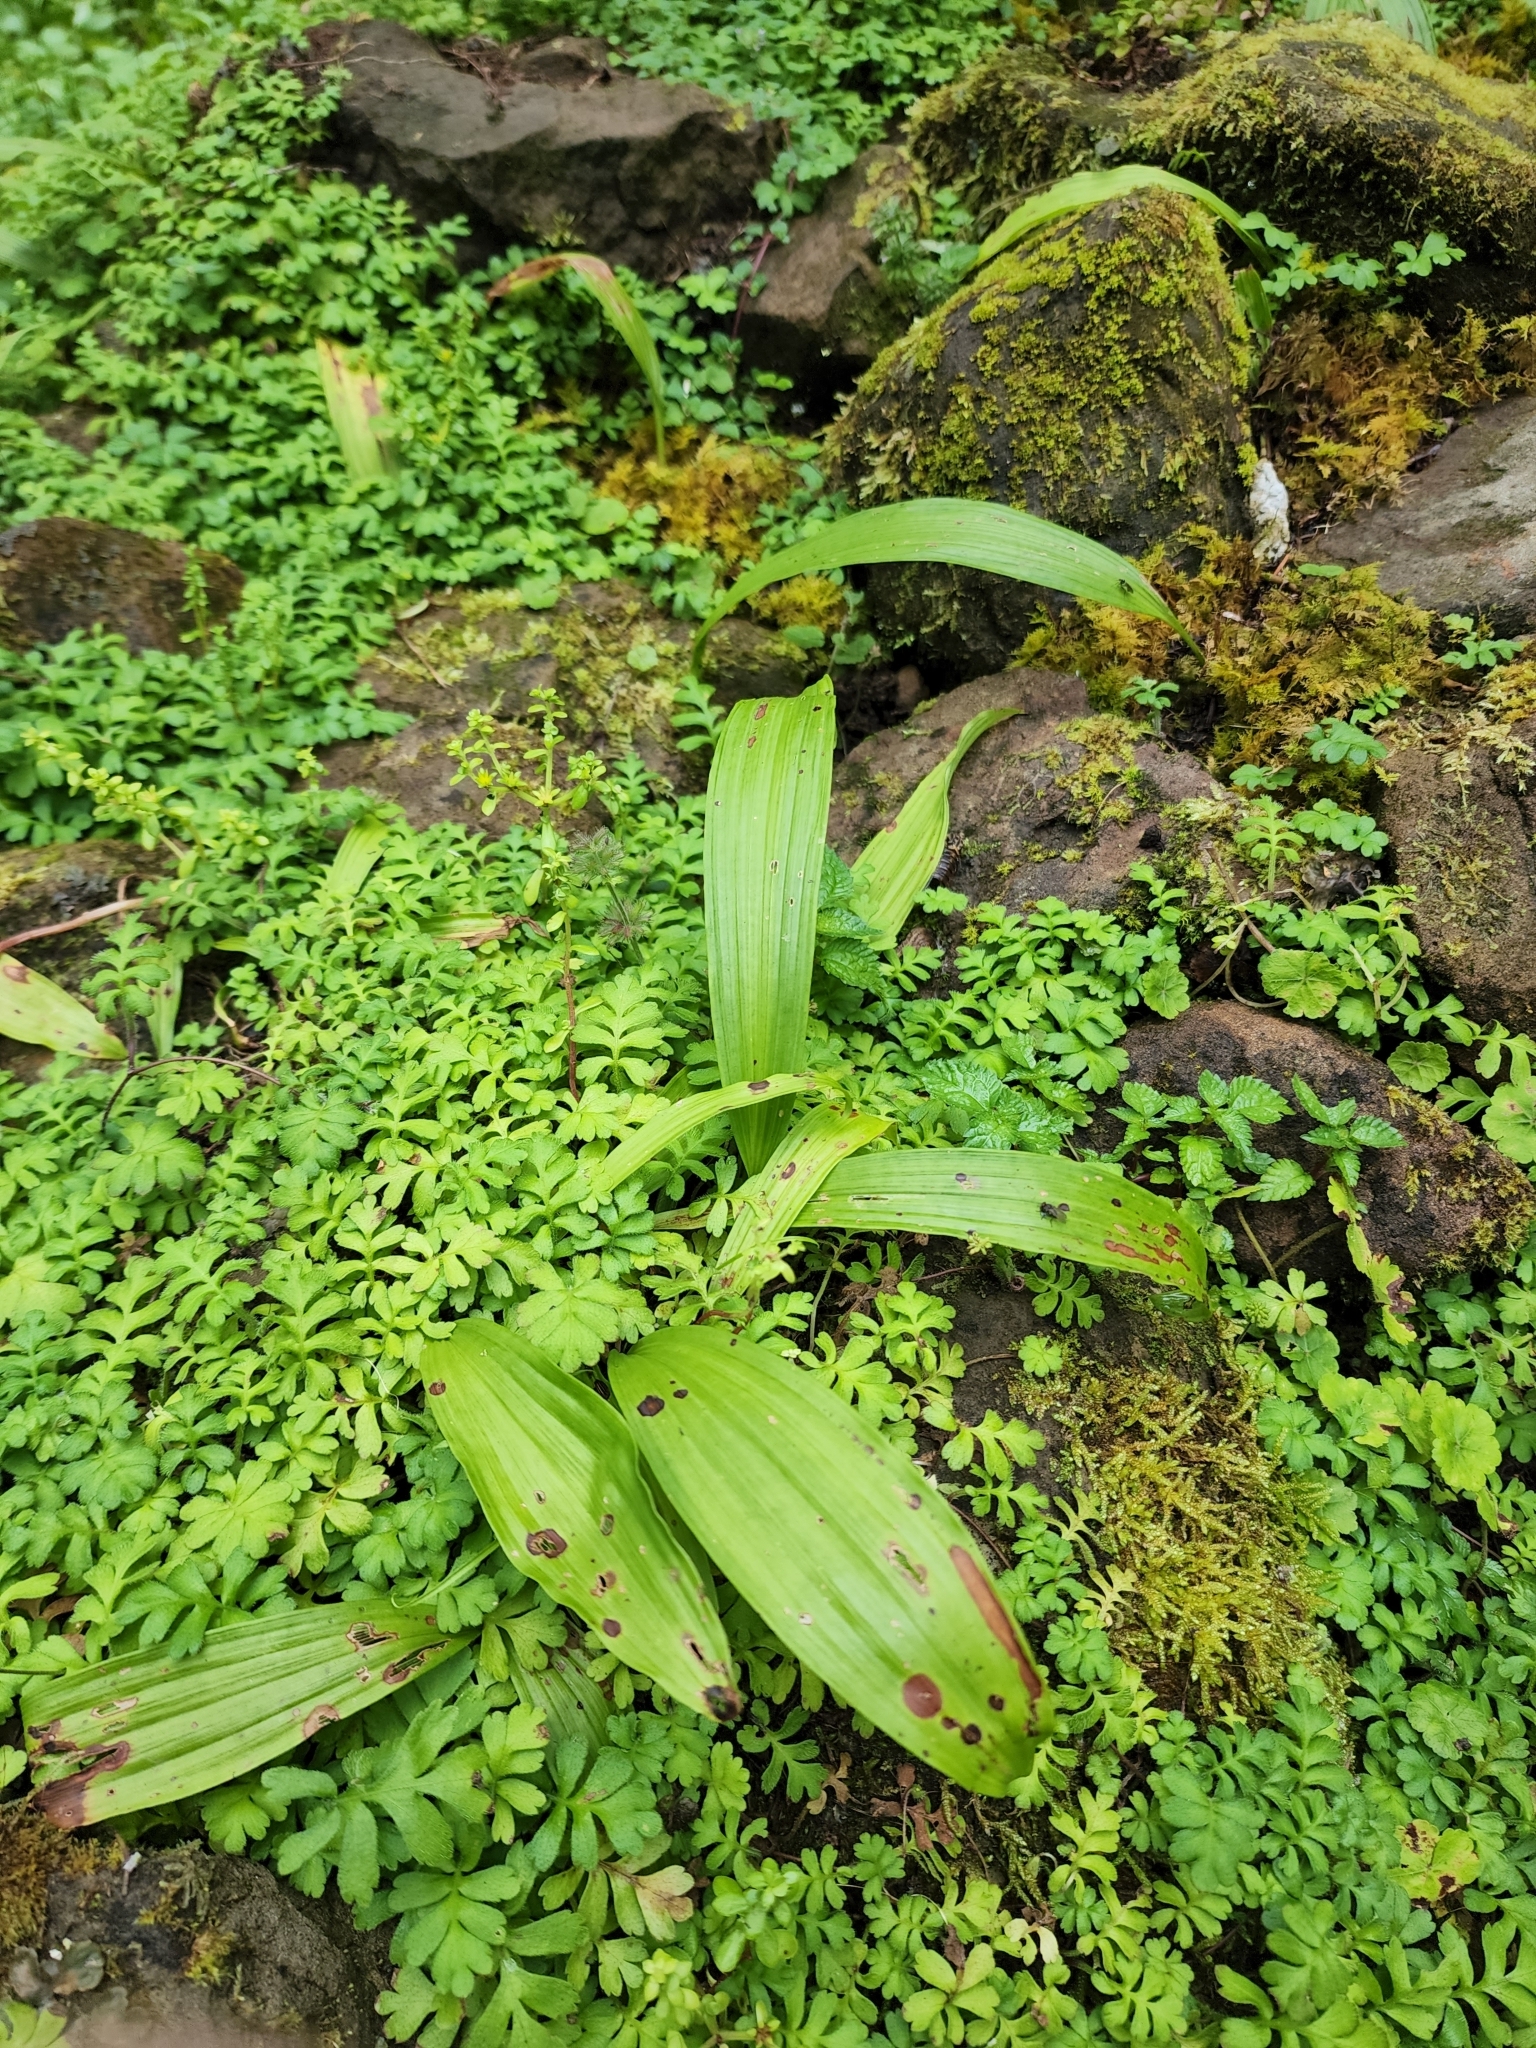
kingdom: Plantae
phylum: Tracheophyta
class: Liliopsida
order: Asparagales
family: Orchidaceae
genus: Pleione
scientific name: Pleione formosana
